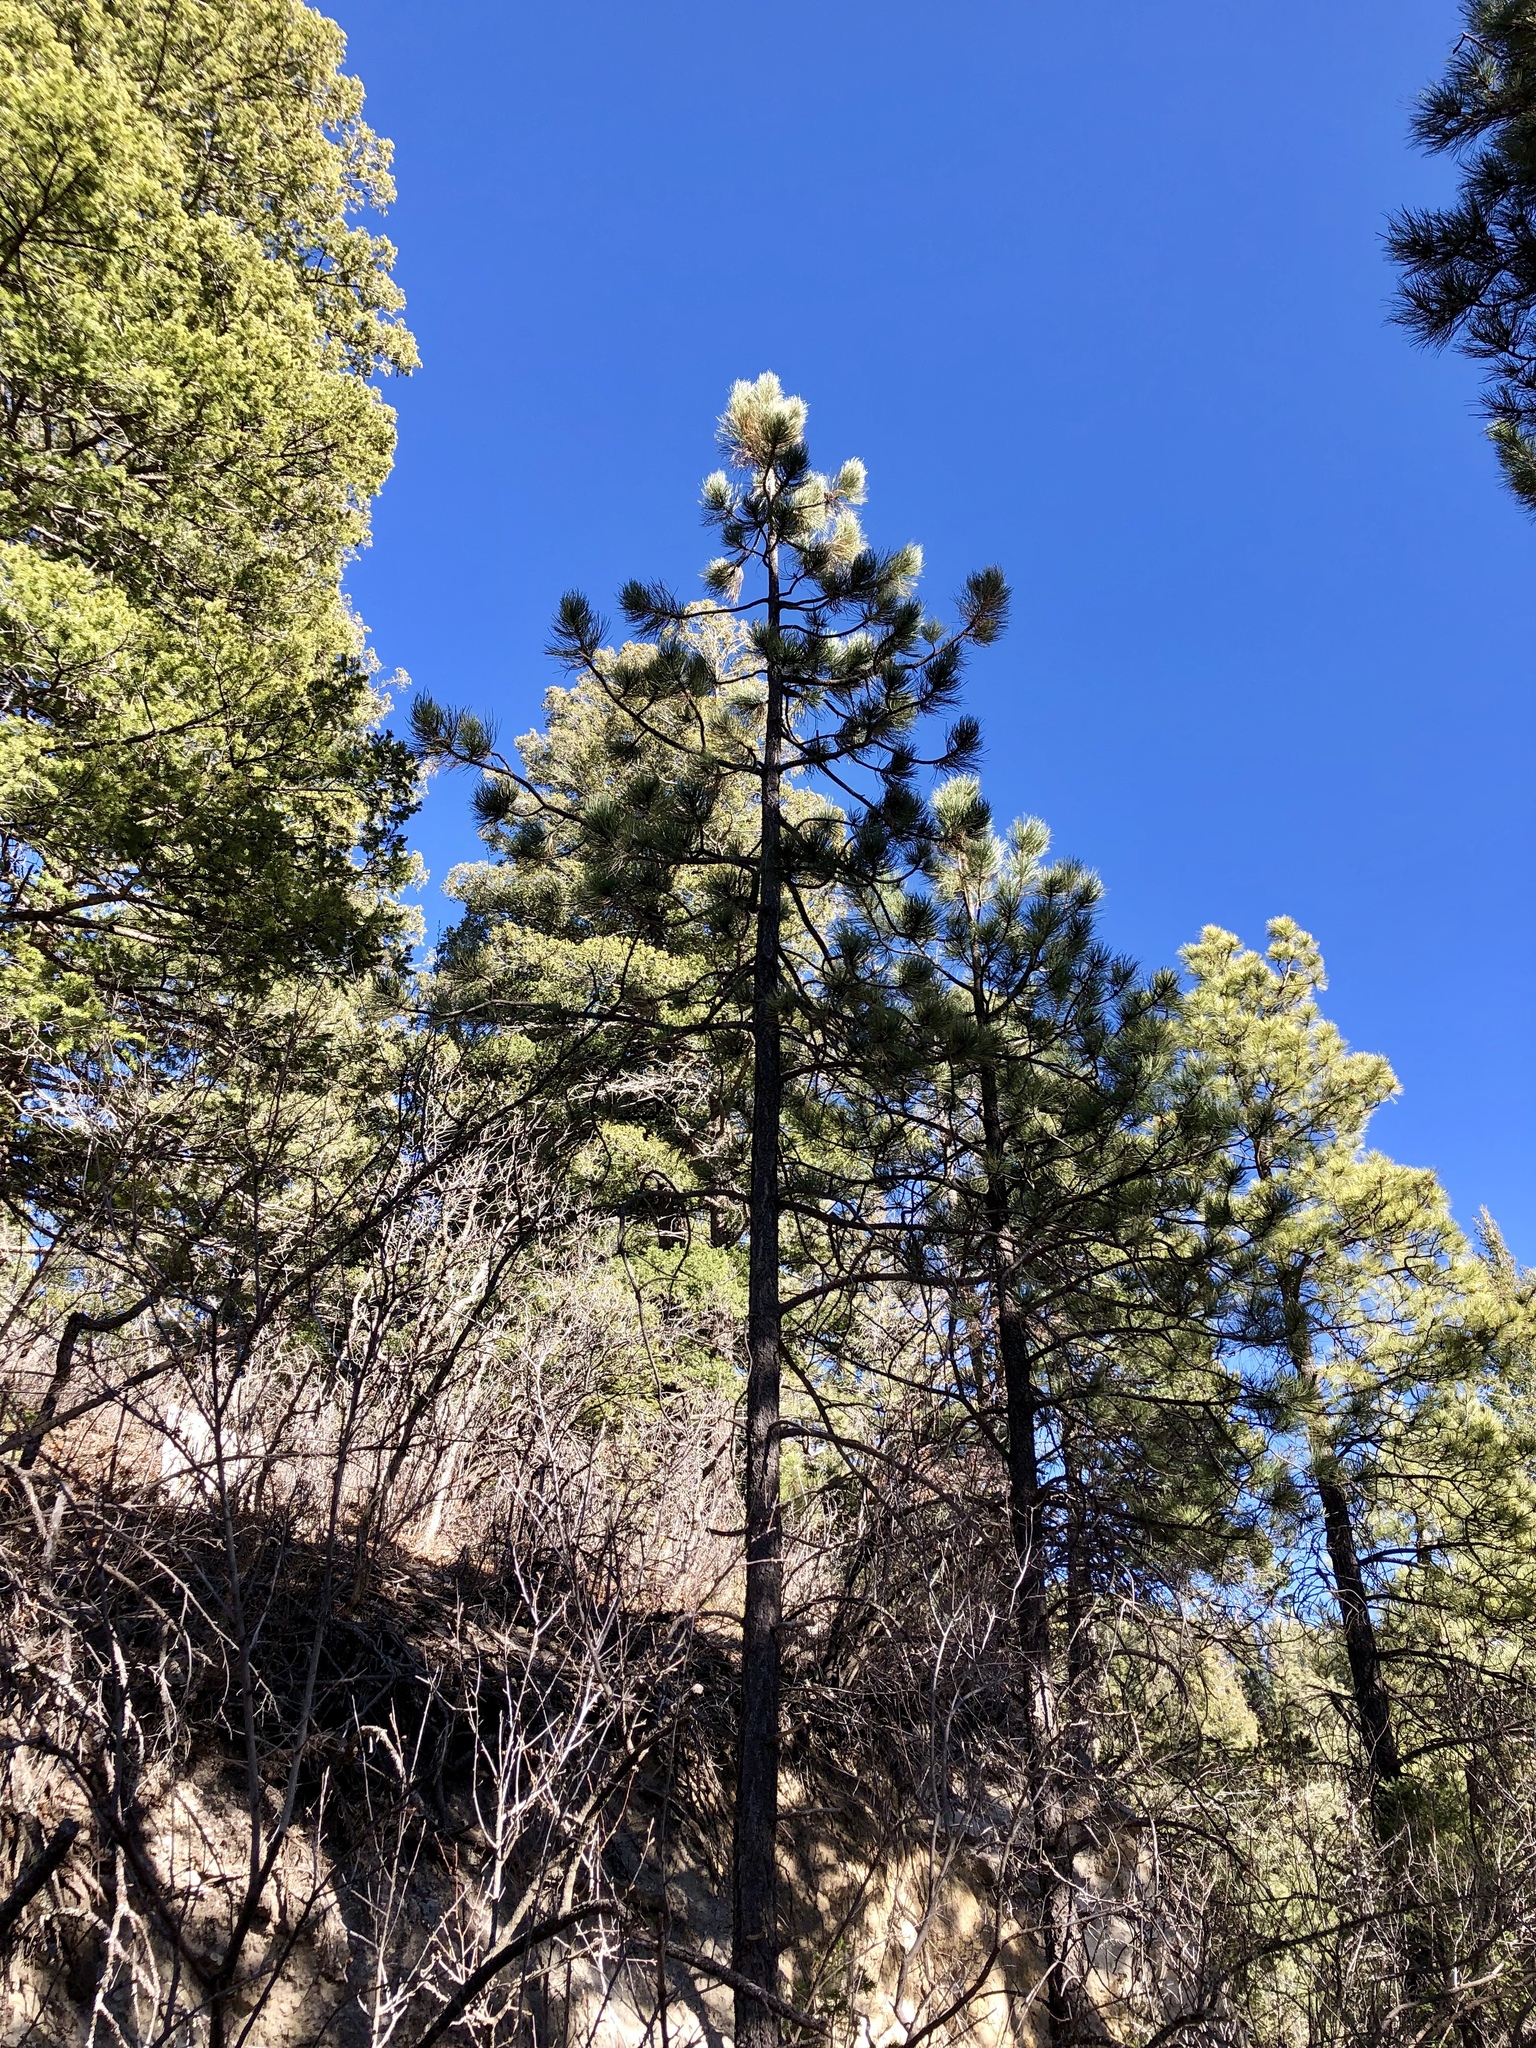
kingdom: Plantae
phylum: Tracheophyta
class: Pinopsida
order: Pinales
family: Pinaceae
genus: Pinus
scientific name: Pinus ponderosa
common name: Western yellow-pine
